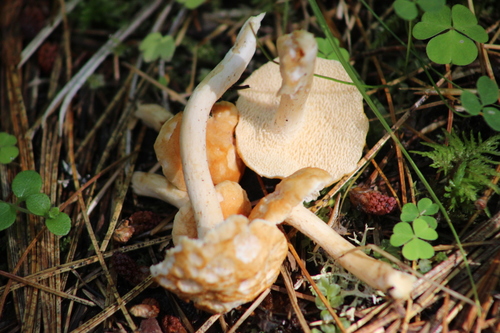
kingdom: Fungi
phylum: Basidiomycota
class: Agaricomycetes
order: Cantharellales
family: Hydnaceae
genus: Hydnum
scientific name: Hydnum rufescens
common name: Terracotta hedgehog
